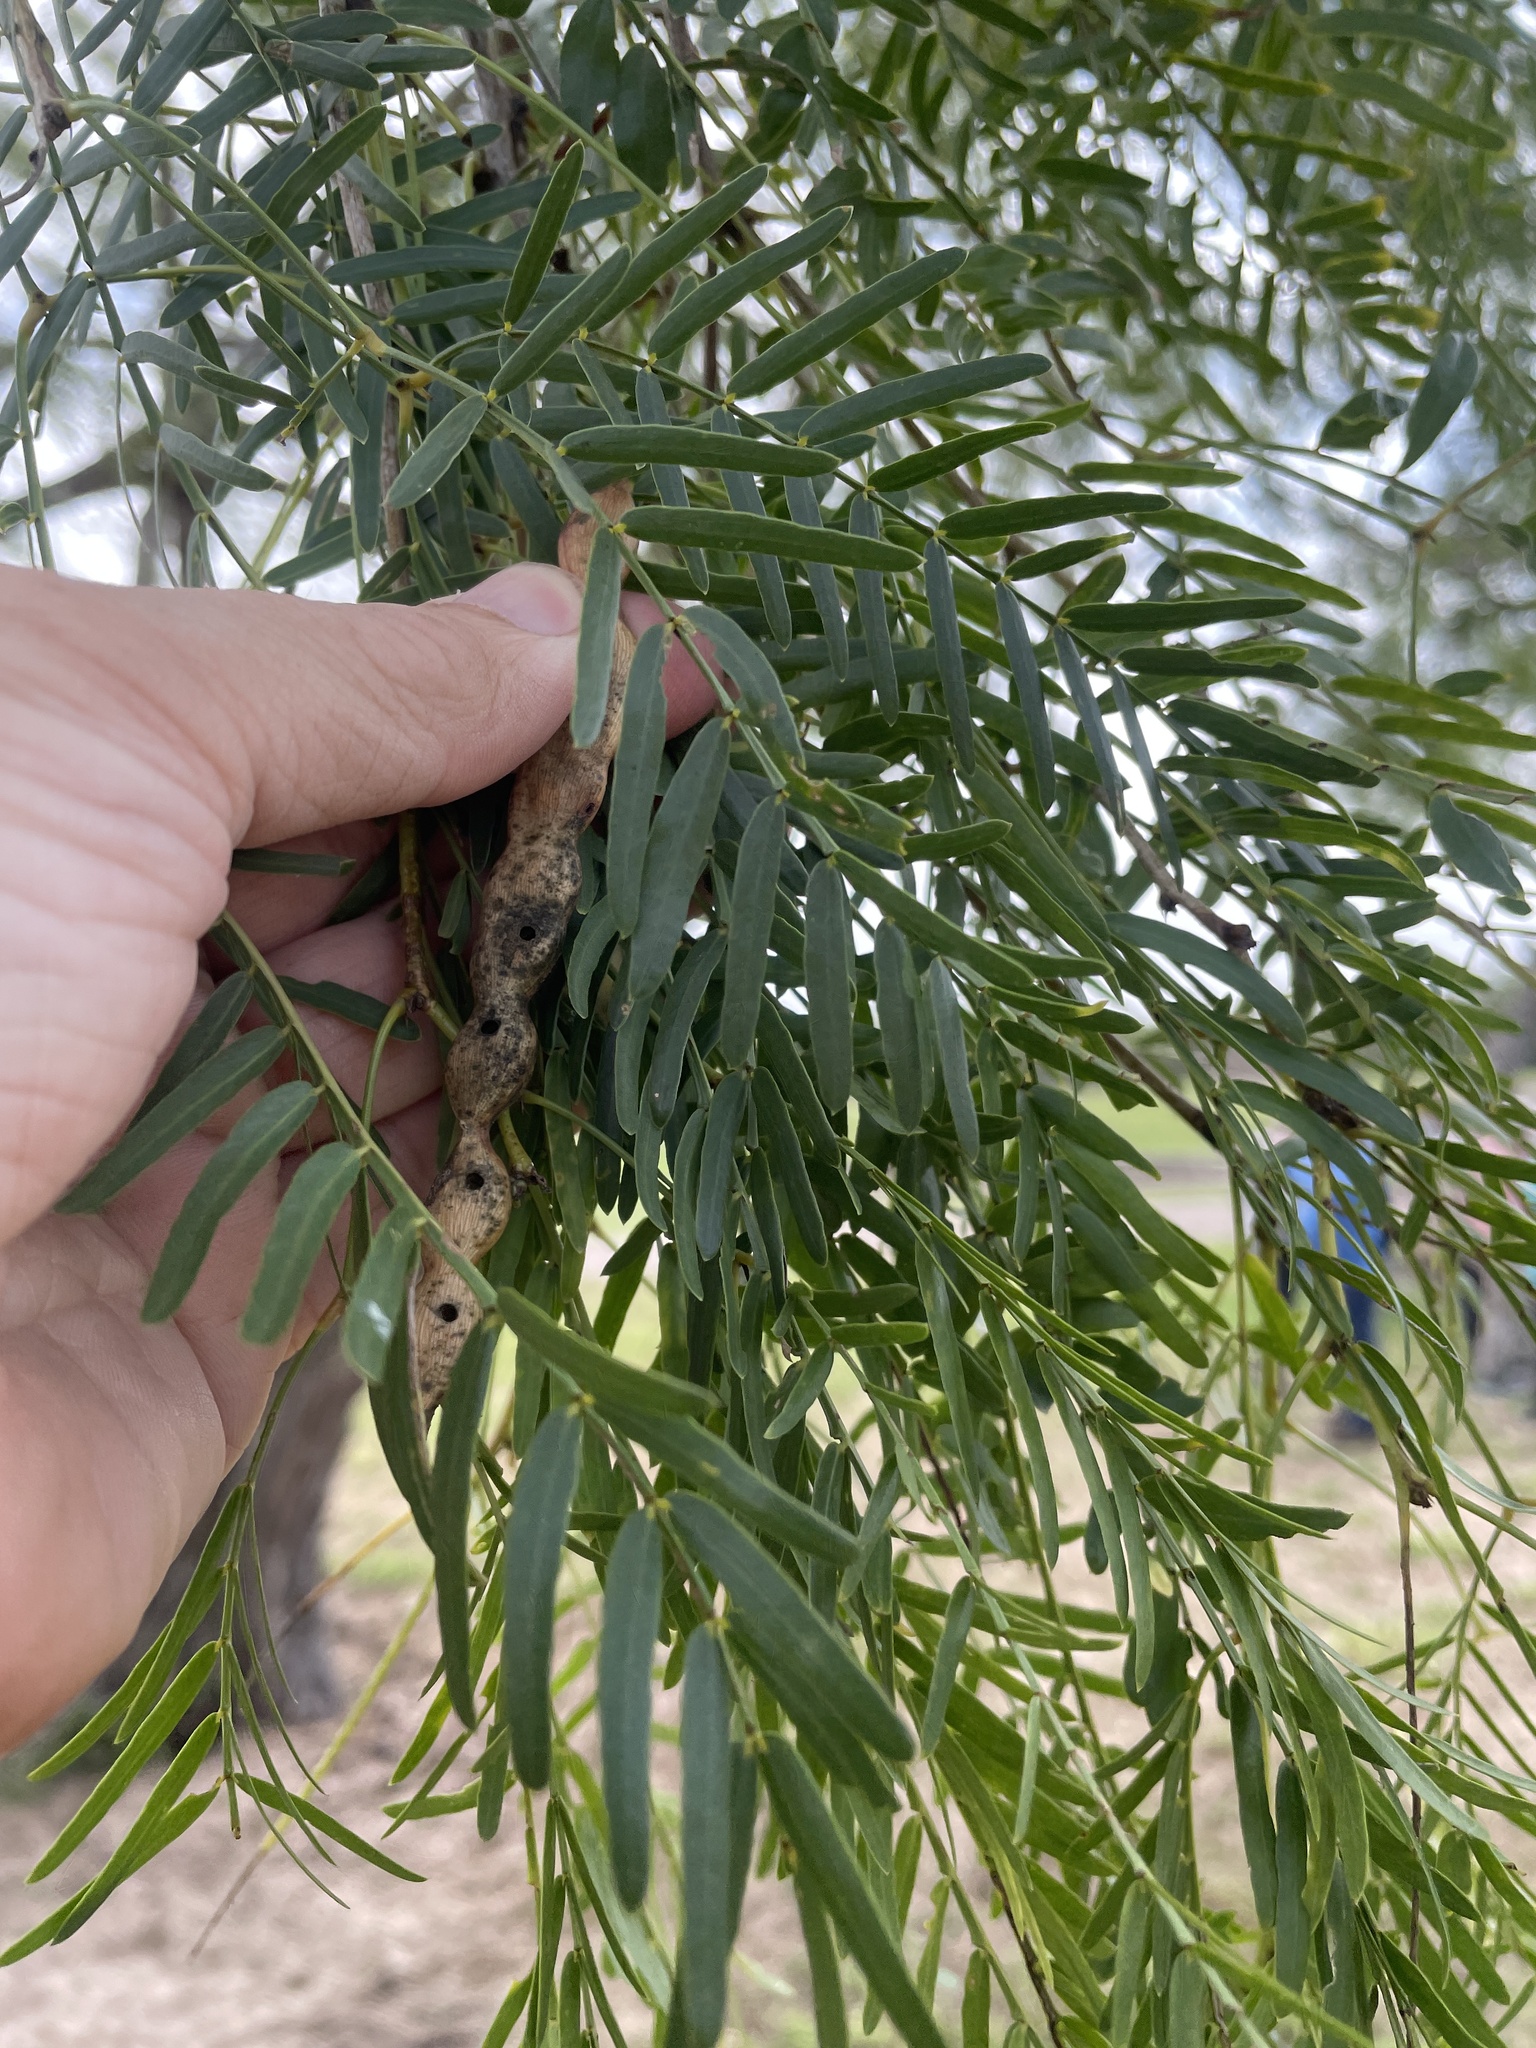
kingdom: Plantae
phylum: Tracheophyta
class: Magnoliopsida
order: Fabales
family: Fabaceae
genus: Prosopis
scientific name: Prosopis glandulosa
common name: Honey mesquite
